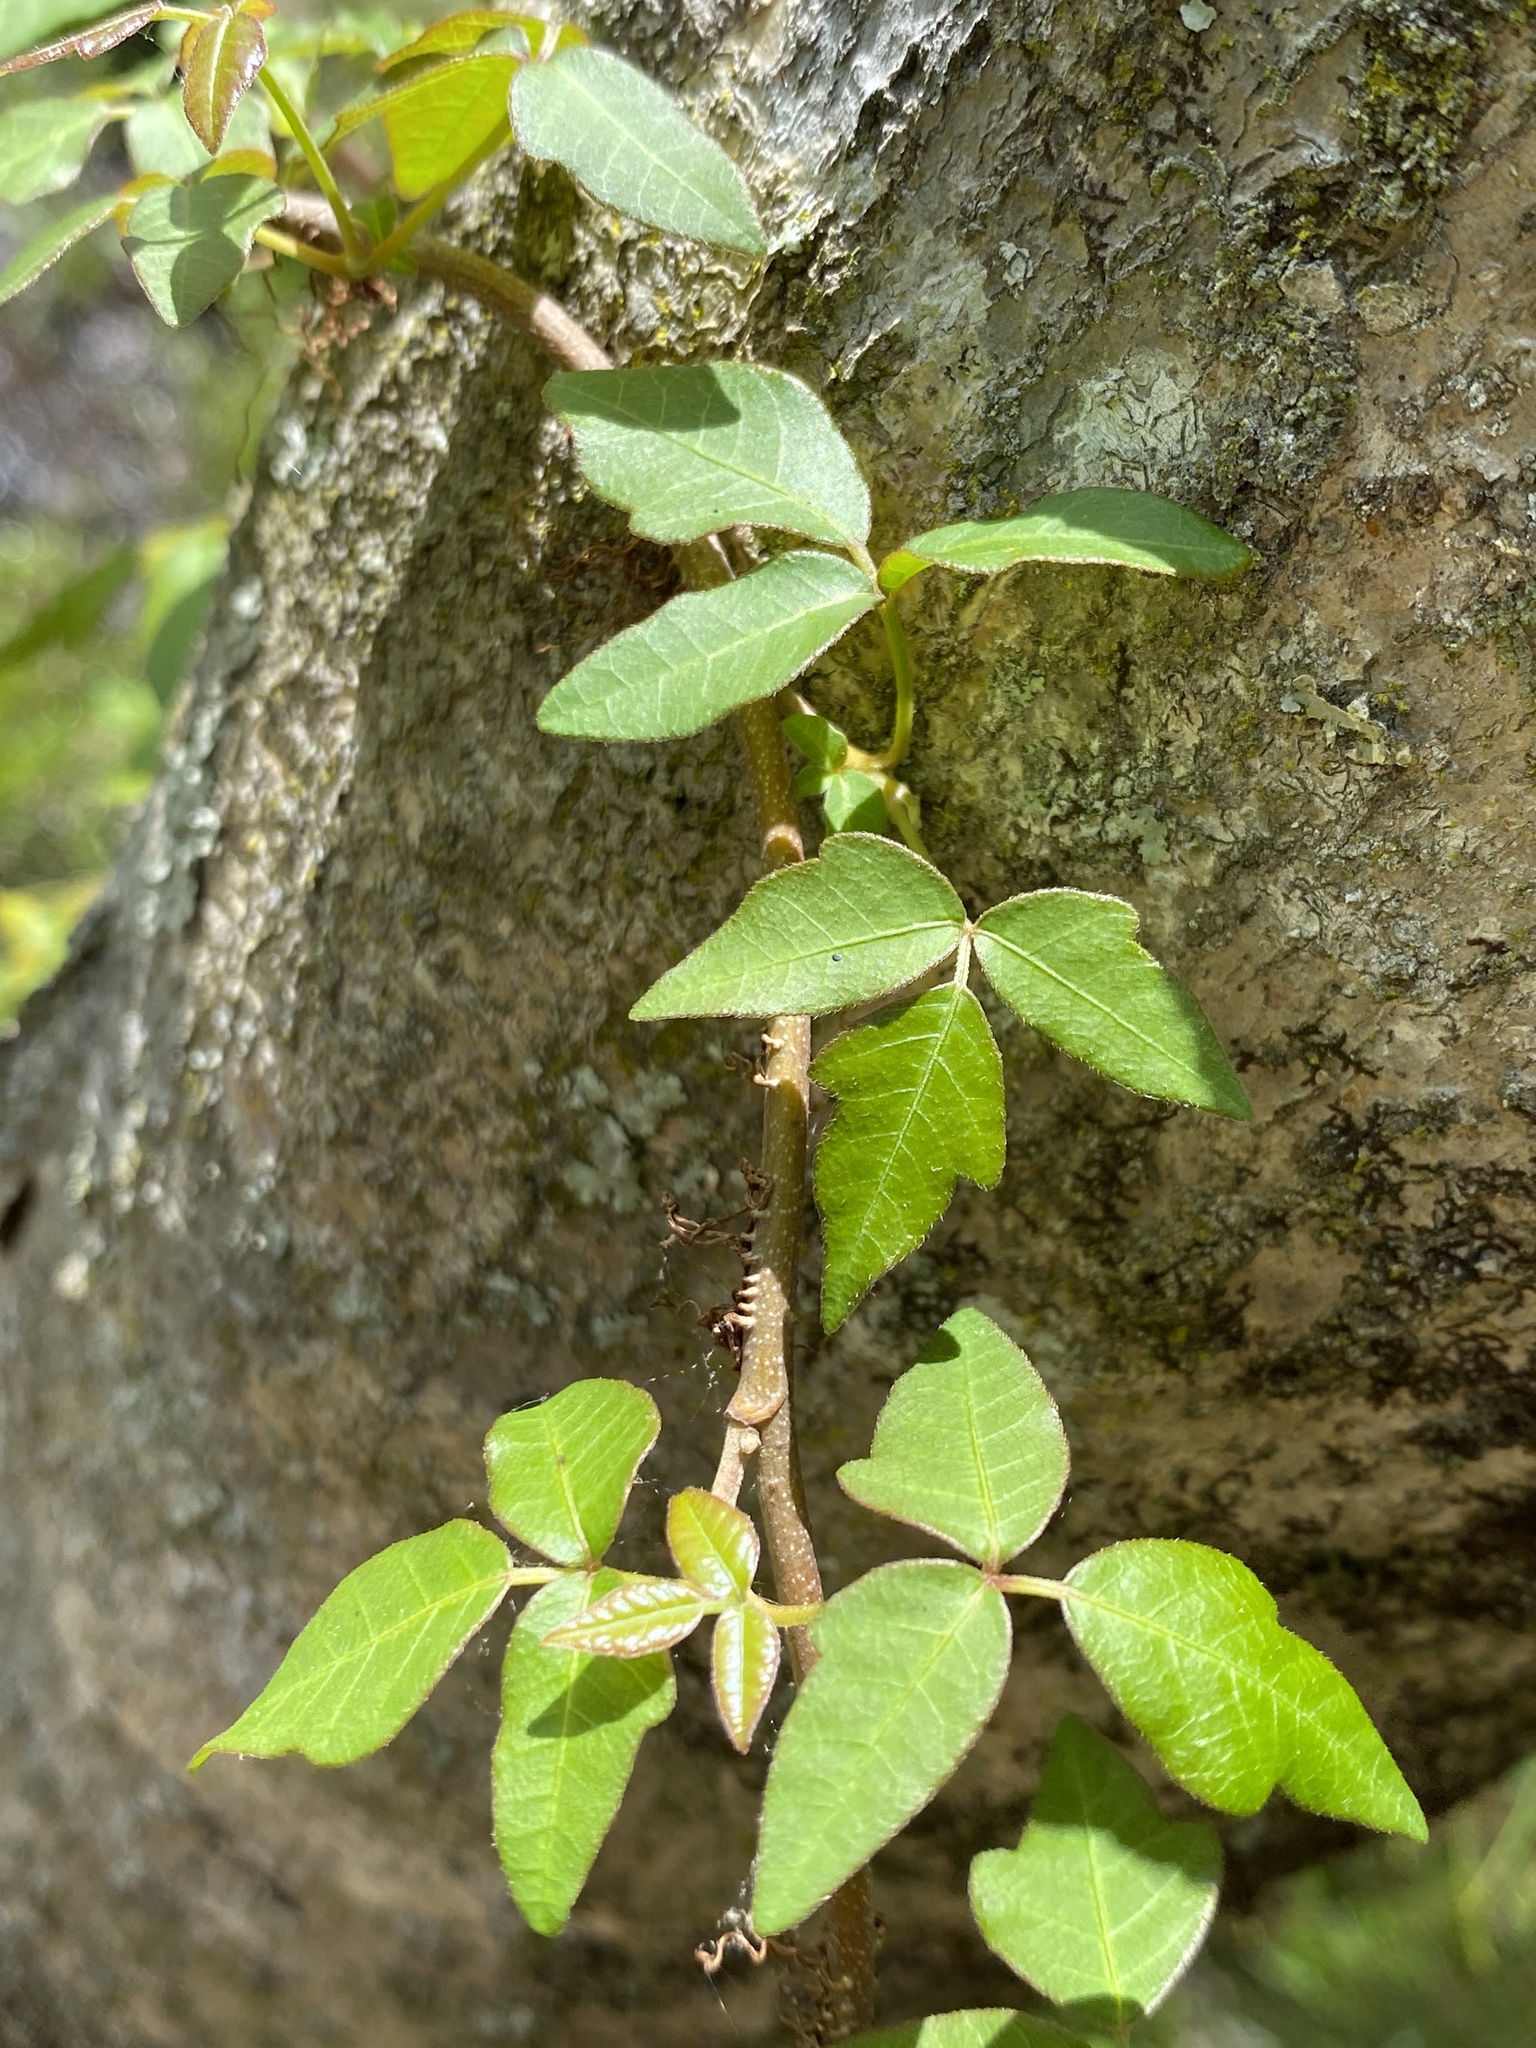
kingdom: Plantae
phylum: Tracheophyta
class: Magnoliopsida
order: Sapindales
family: Anacardiaceae
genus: Toxicodendron
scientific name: Toxicodendron radicans
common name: Poison ivy
